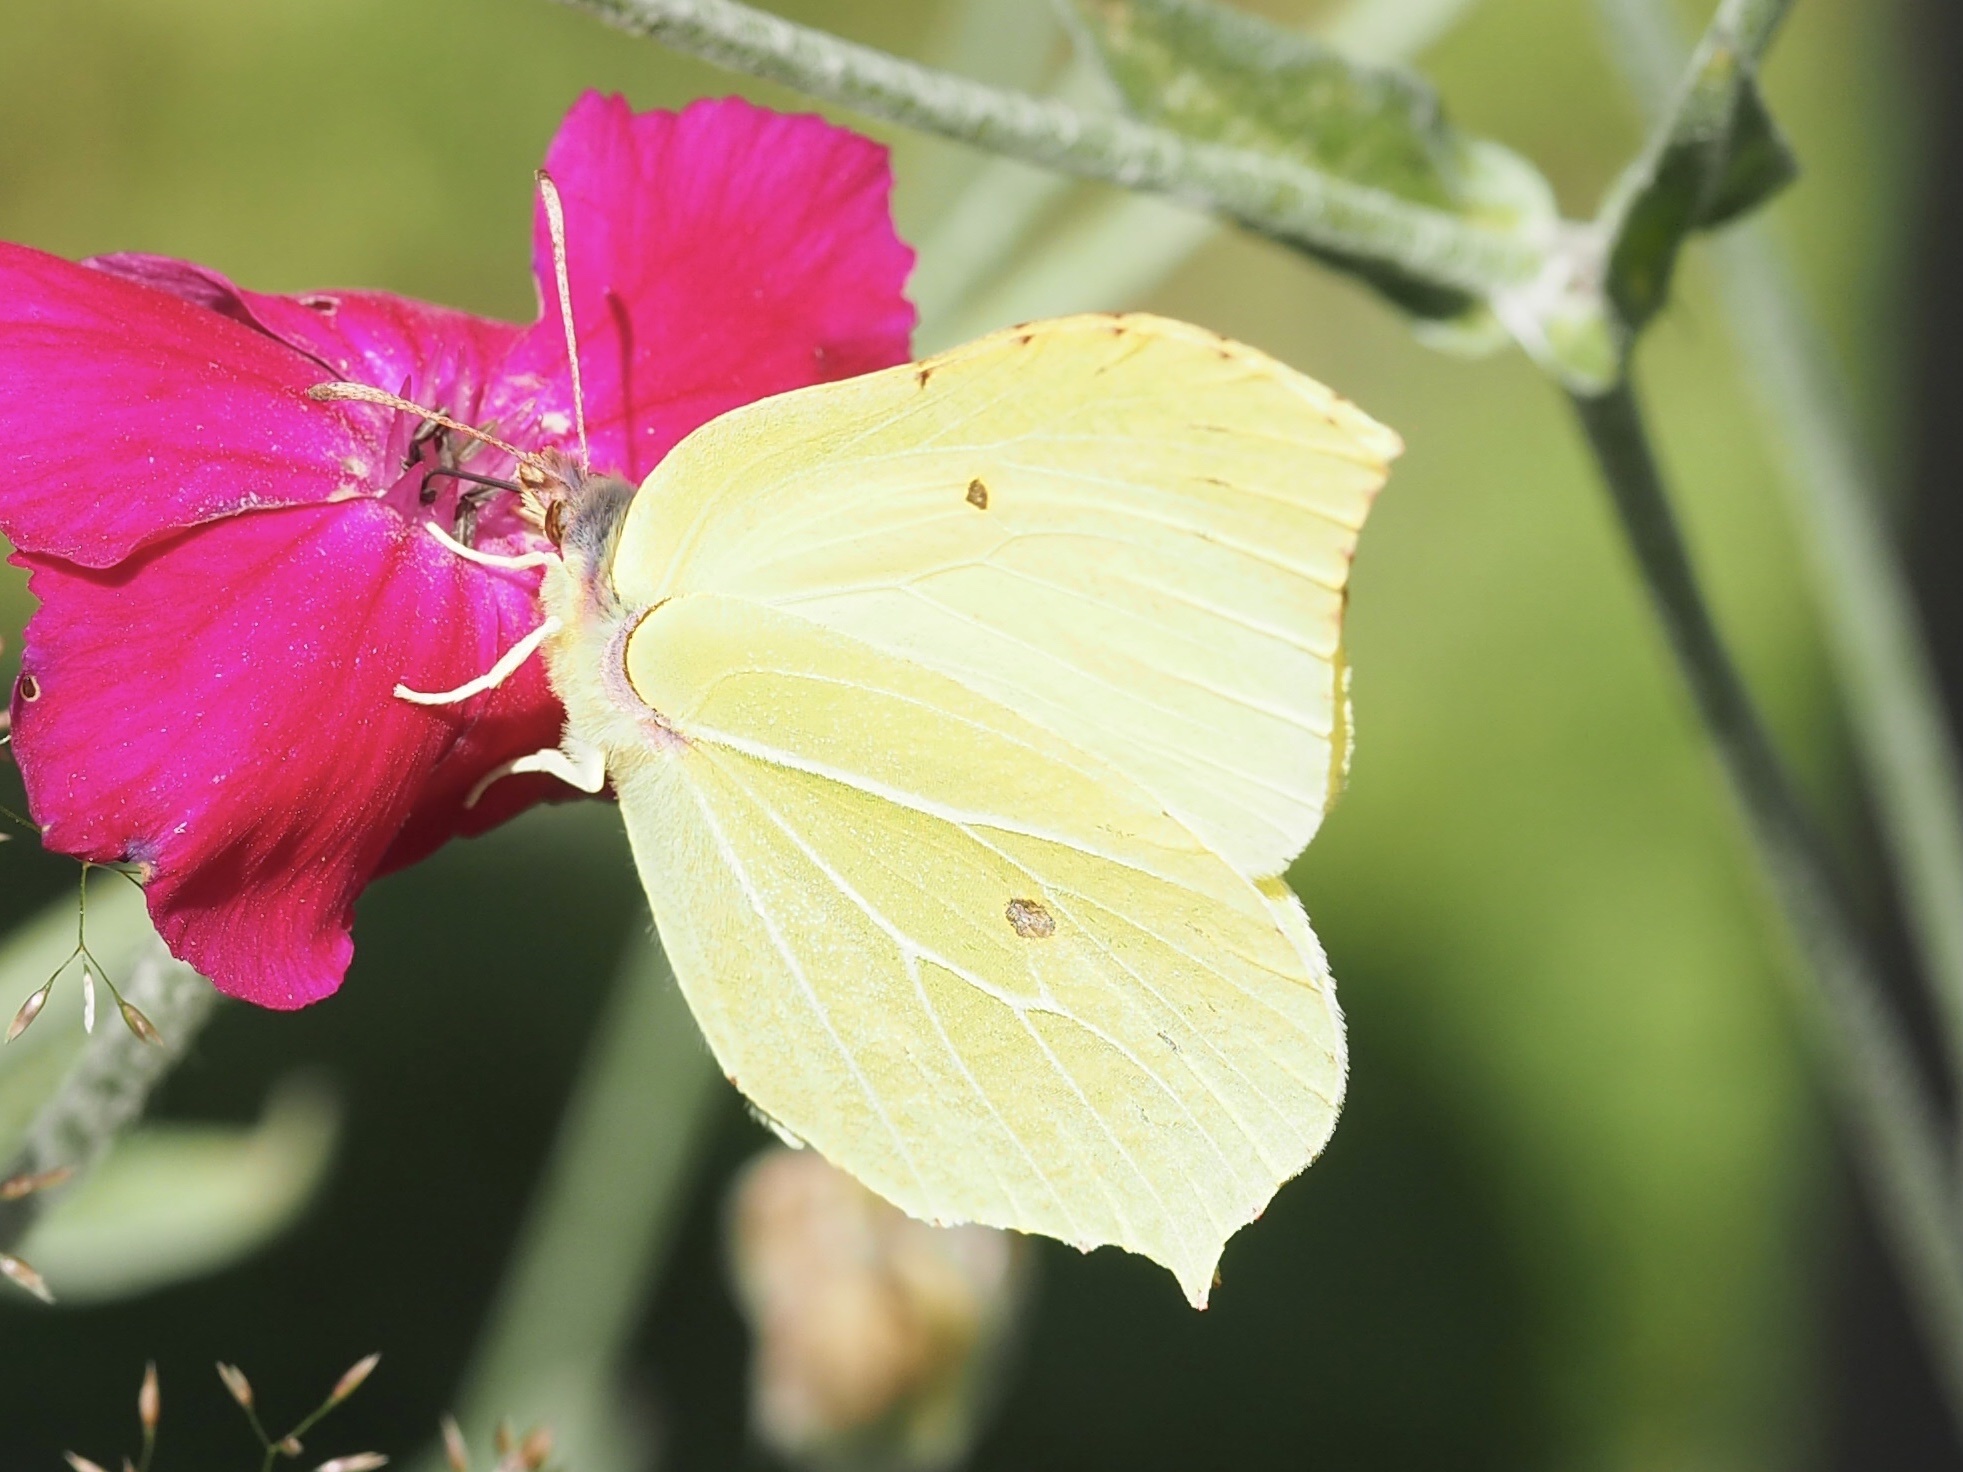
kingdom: Animalia
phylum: Arthropoda
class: Insecta
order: Lepidoptera
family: Pieridae
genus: Gonepteryx
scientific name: Gonepteryx rhamni
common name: Brimstone
